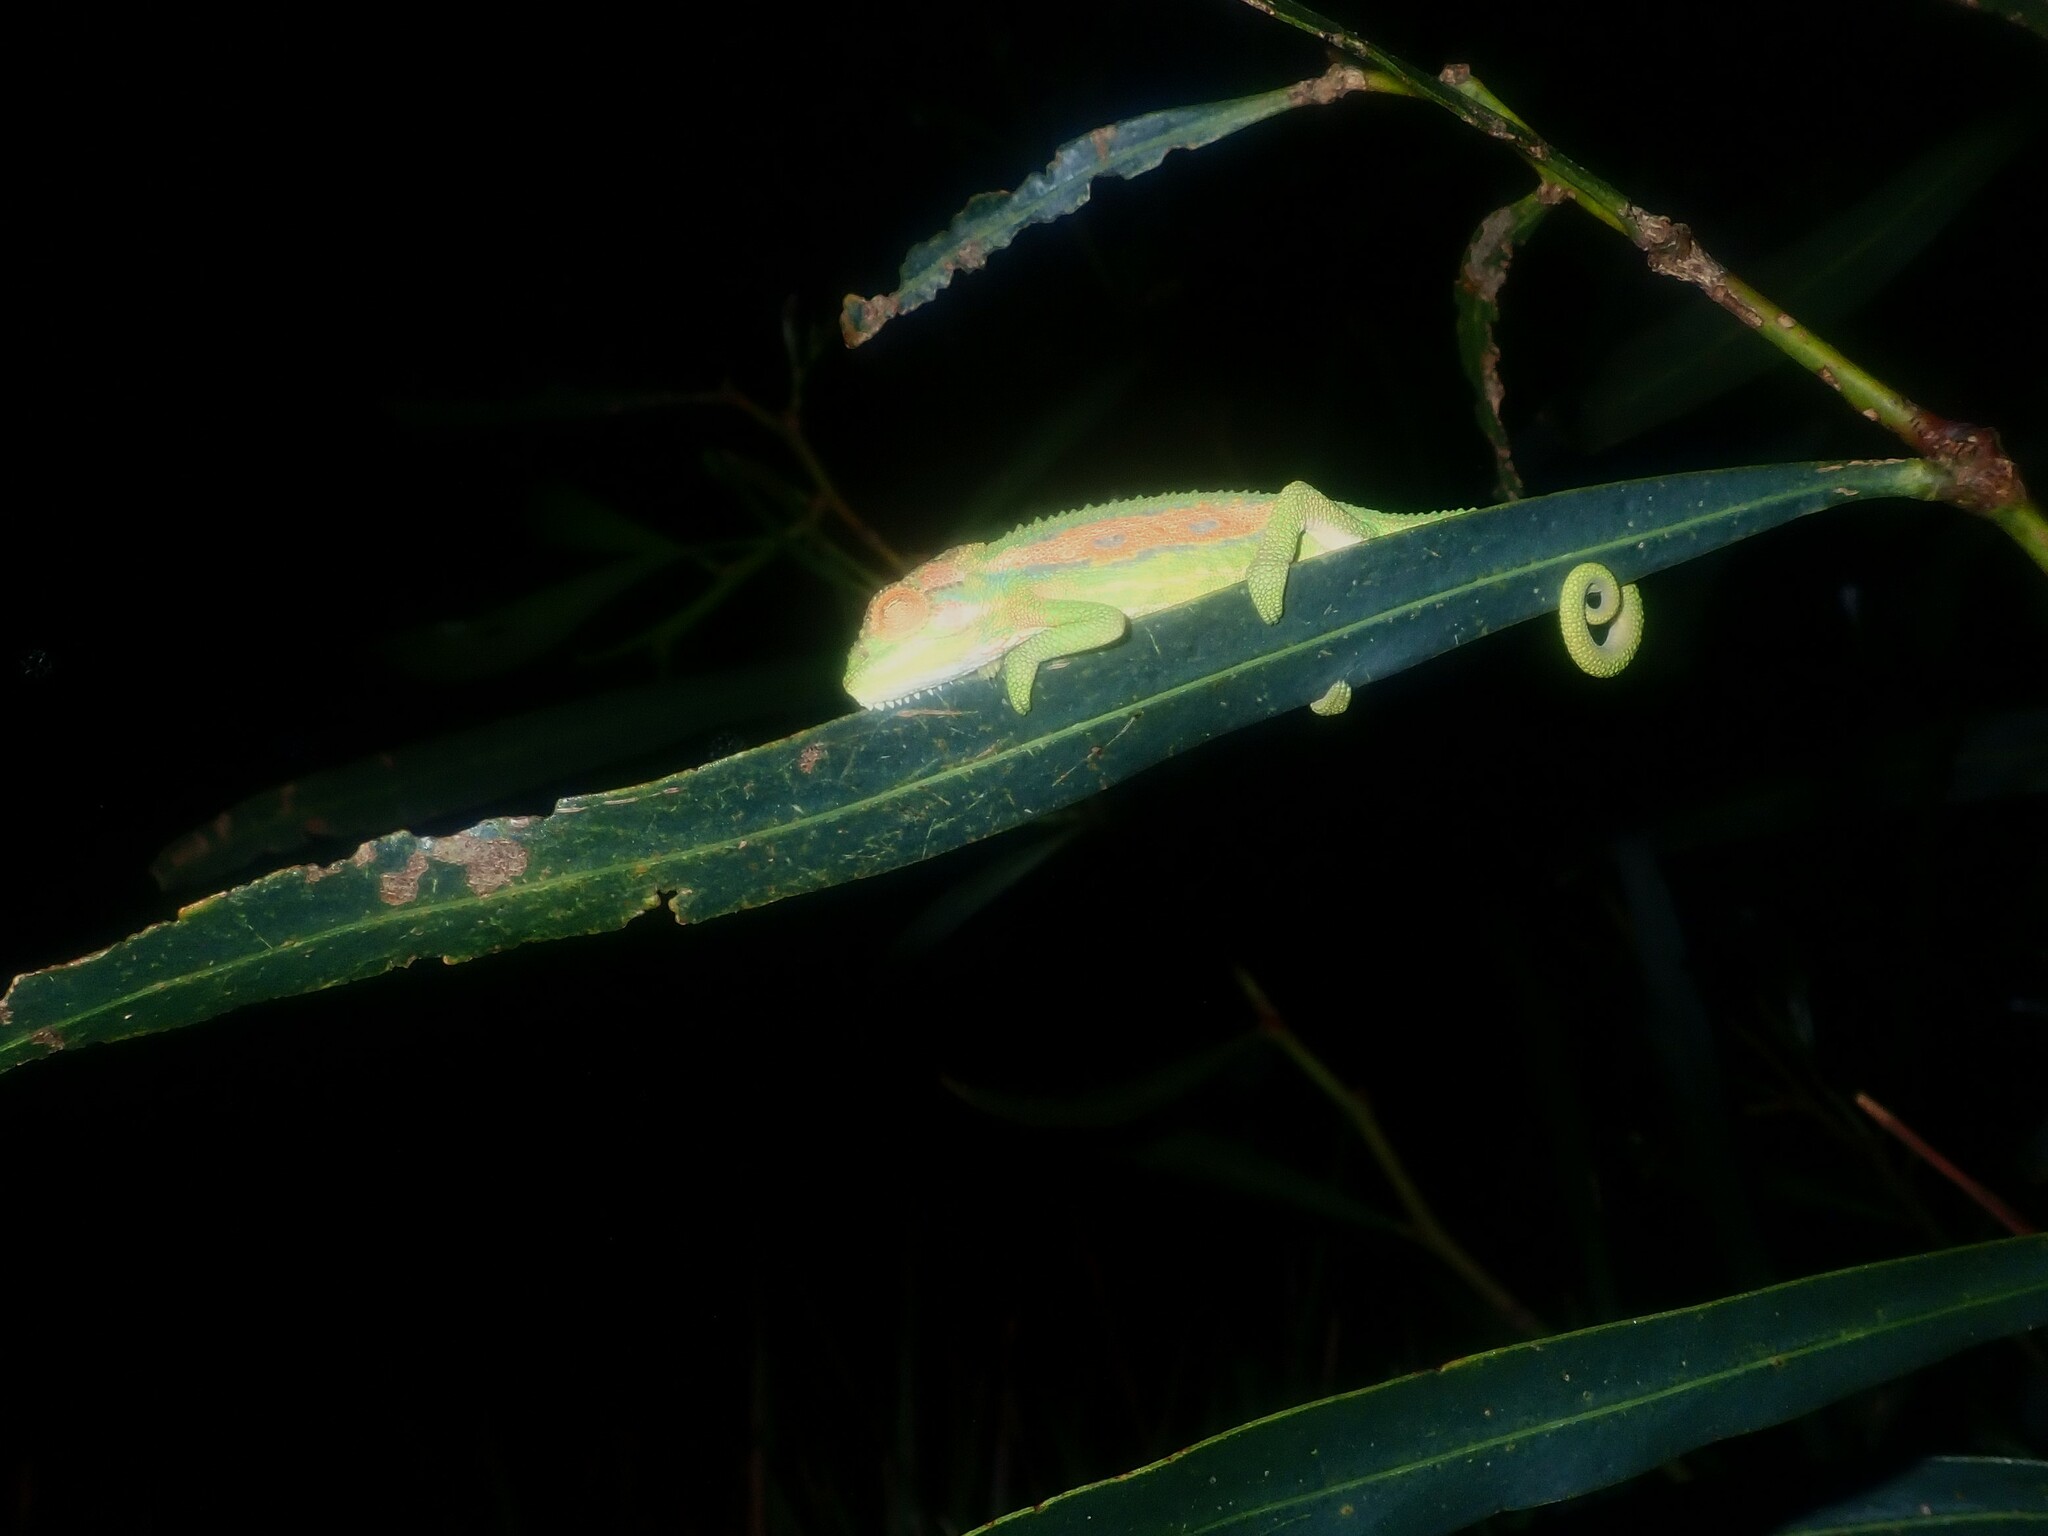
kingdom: Animalia
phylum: Chordata
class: Squamata
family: Chamaeleonidae
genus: Bradypodion
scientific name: Bradypodion pumilum
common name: Cape dwarf chameleon
